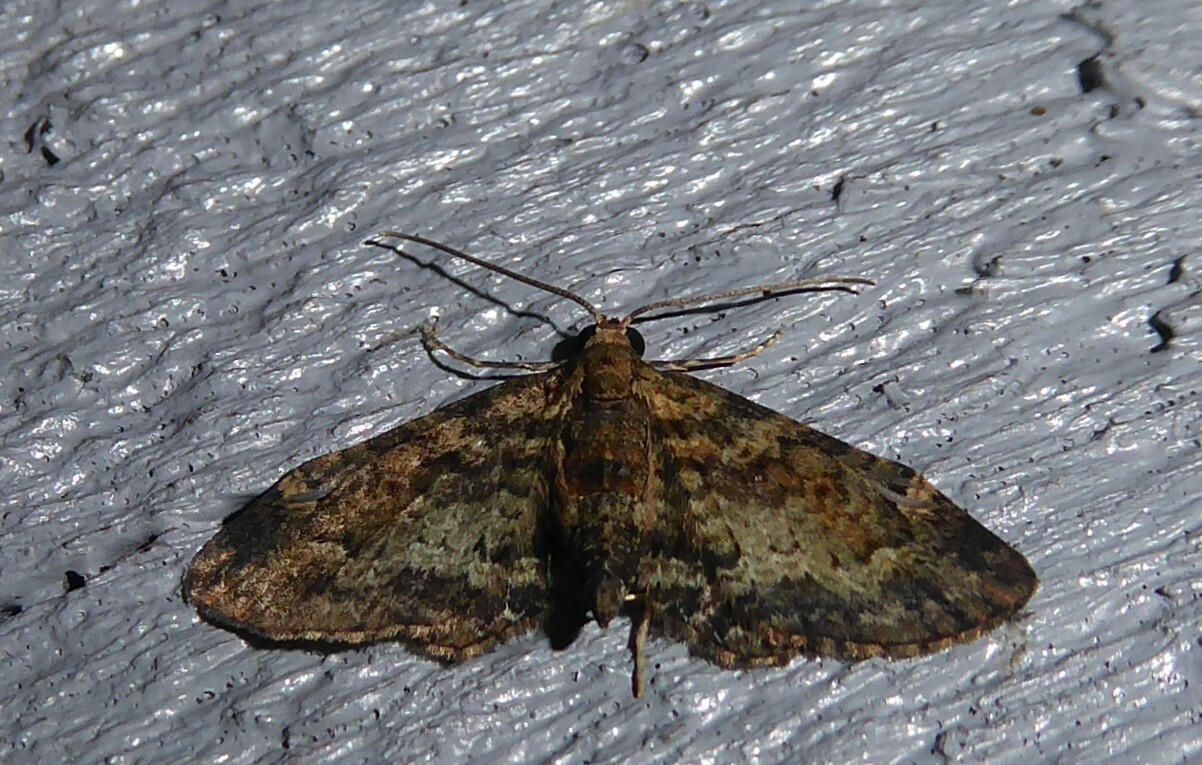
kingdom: Animalia
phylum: Arthropoda
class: Insecta
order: Lepidoptera
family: Geometridae
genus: Pasiphilodes
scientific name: Pasiphilodes testulata
